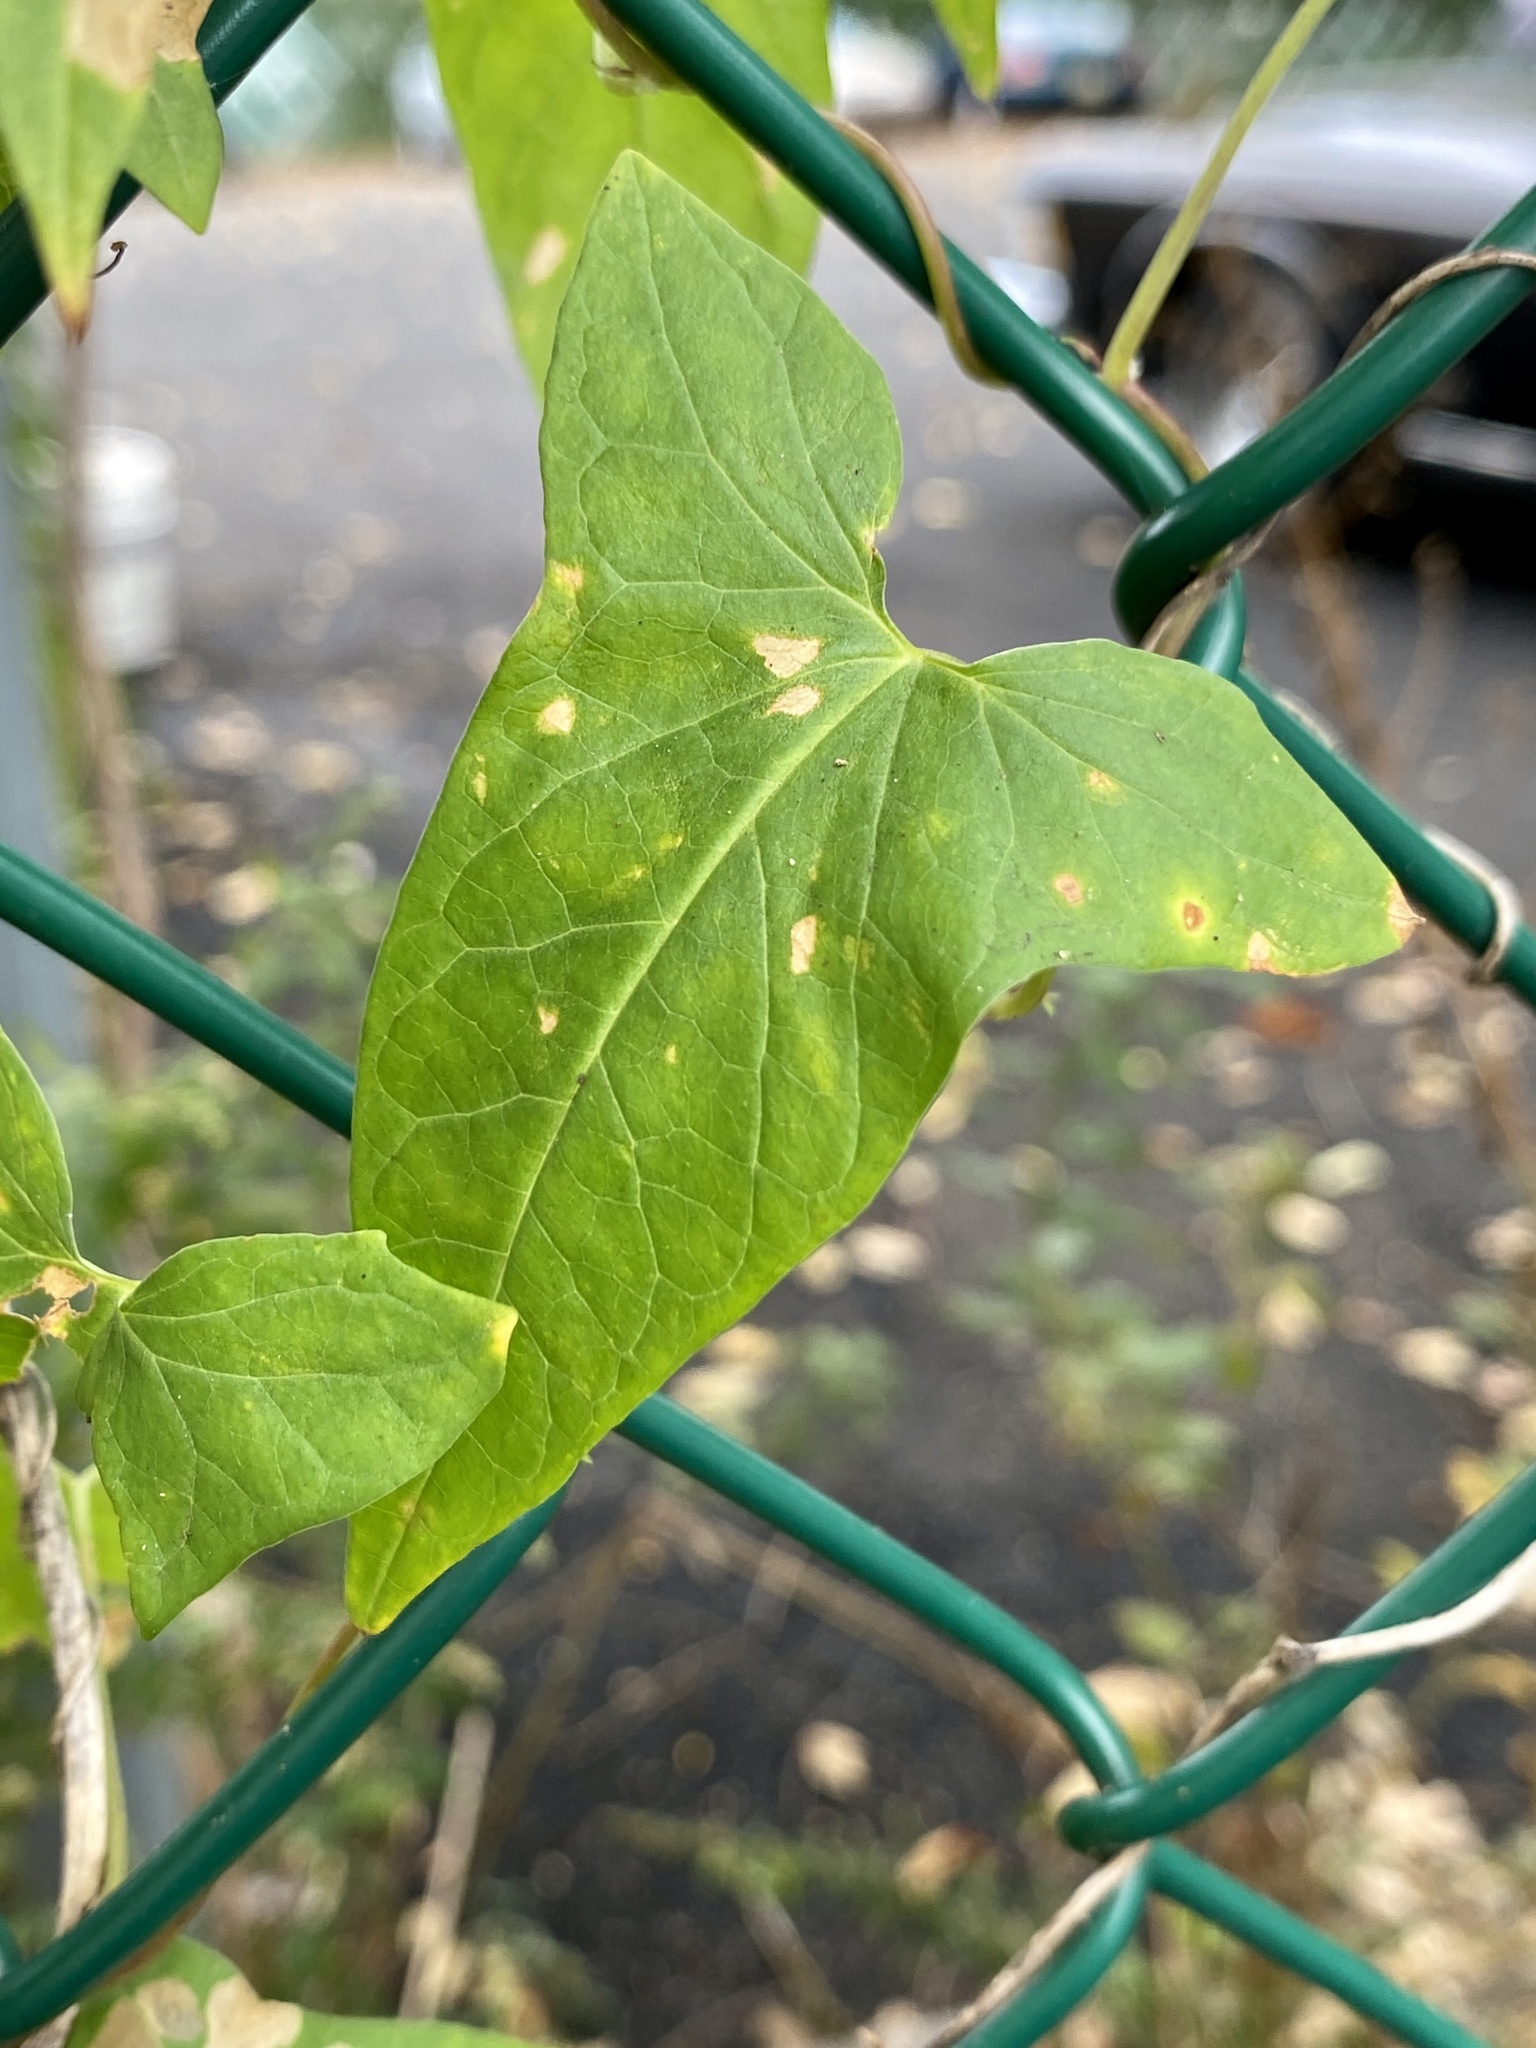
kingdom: Plantae
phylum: Tracheophyta
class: Magnoliopsida
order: Solanales
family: Convolvulaceae
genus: Calystegia
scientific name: Calystegia sepium
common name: Hedge bindweed
